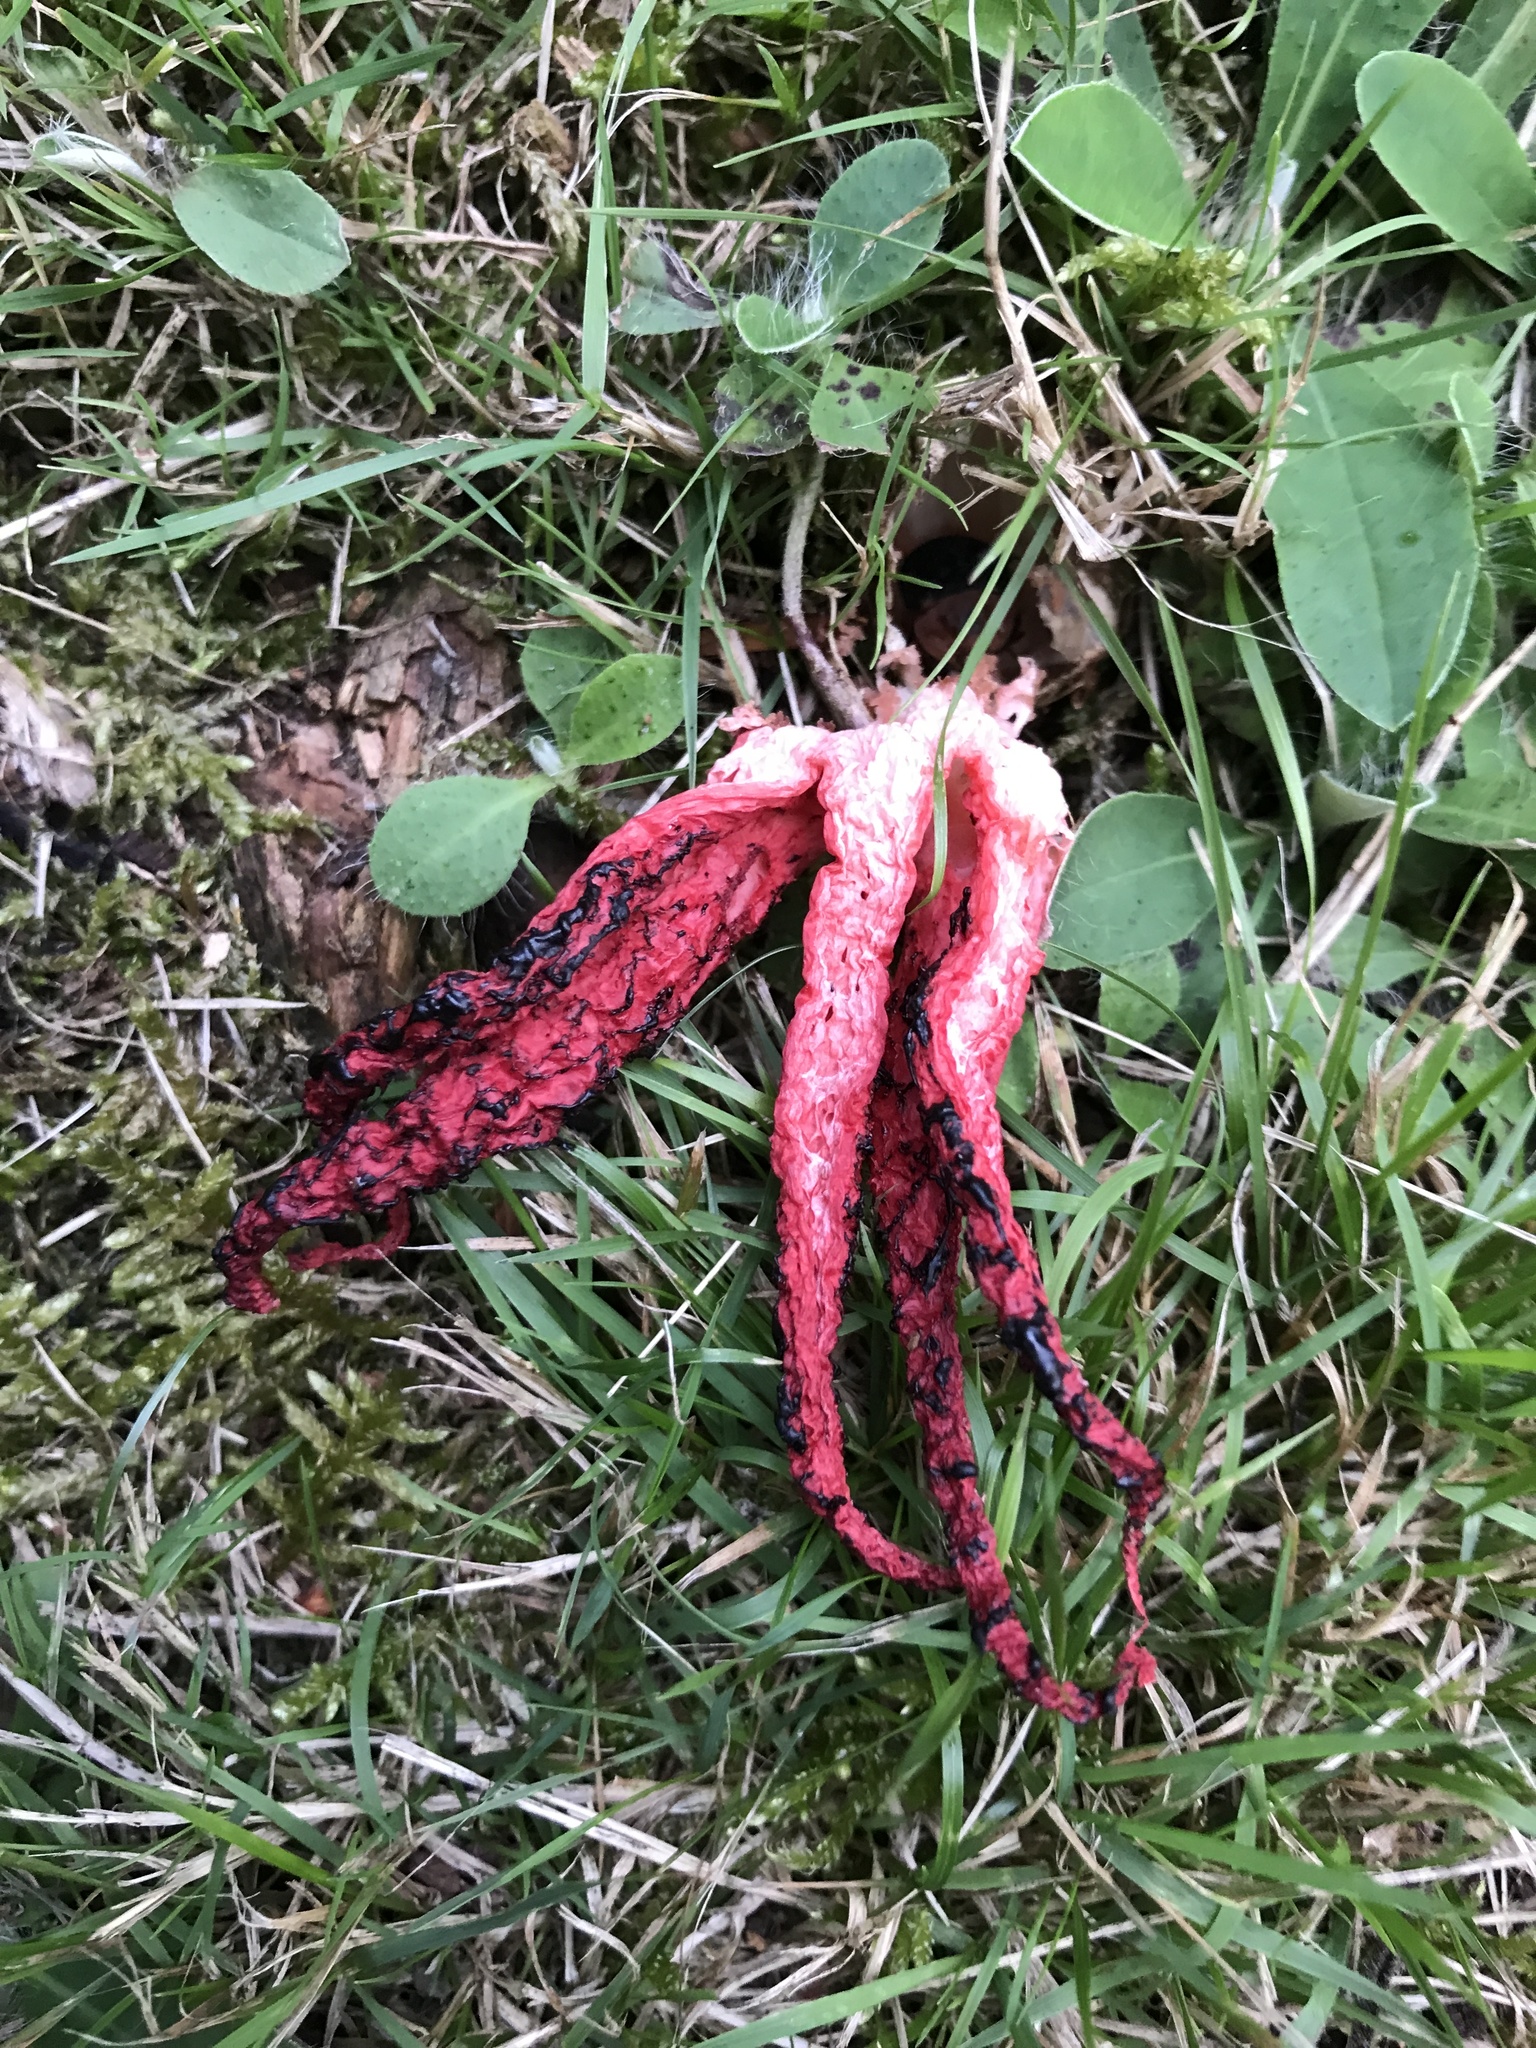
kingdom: Fungi
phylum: Basidiomycota
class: Agaricomycetes
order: Phallales
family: Phallaceae
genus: Clathrus
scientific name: Clathrus archeri
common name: Devil's fingers
